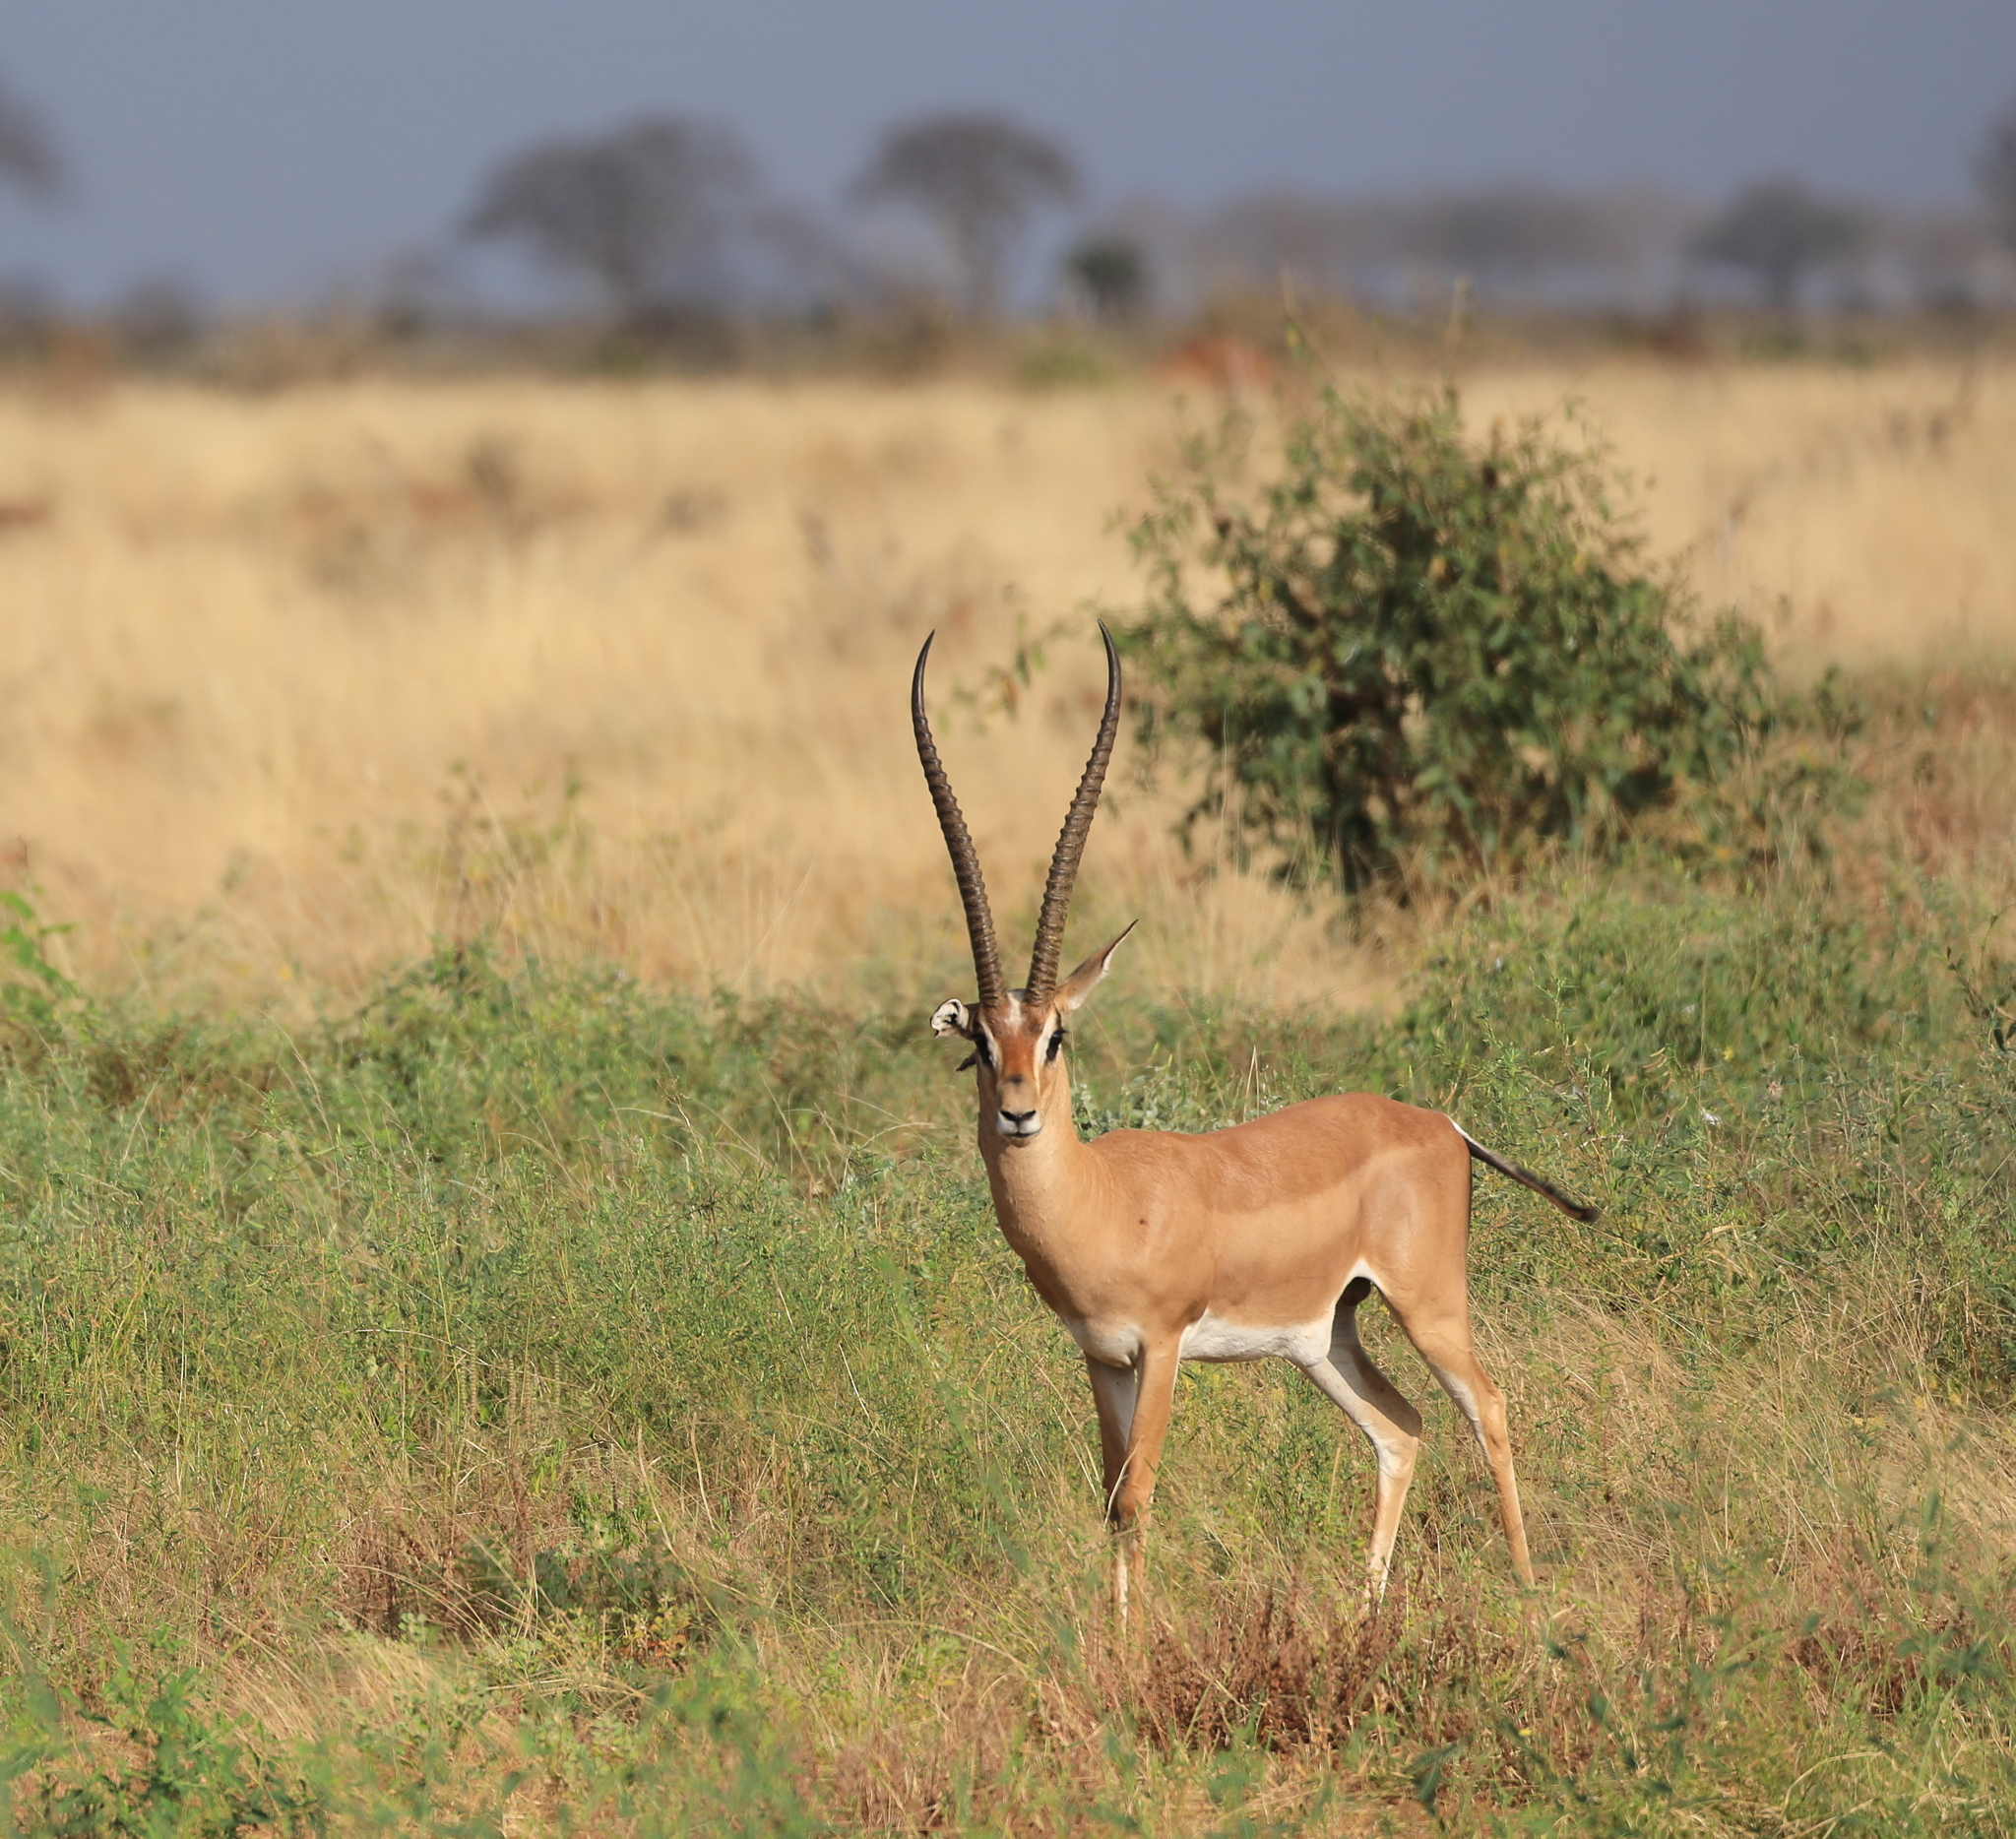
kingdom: Animalia
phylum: Chordata
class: Mammalia
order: Artiodactyla
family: Bovidae
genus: Nanger
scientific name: Nanger granti
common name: Grant's gazelle
